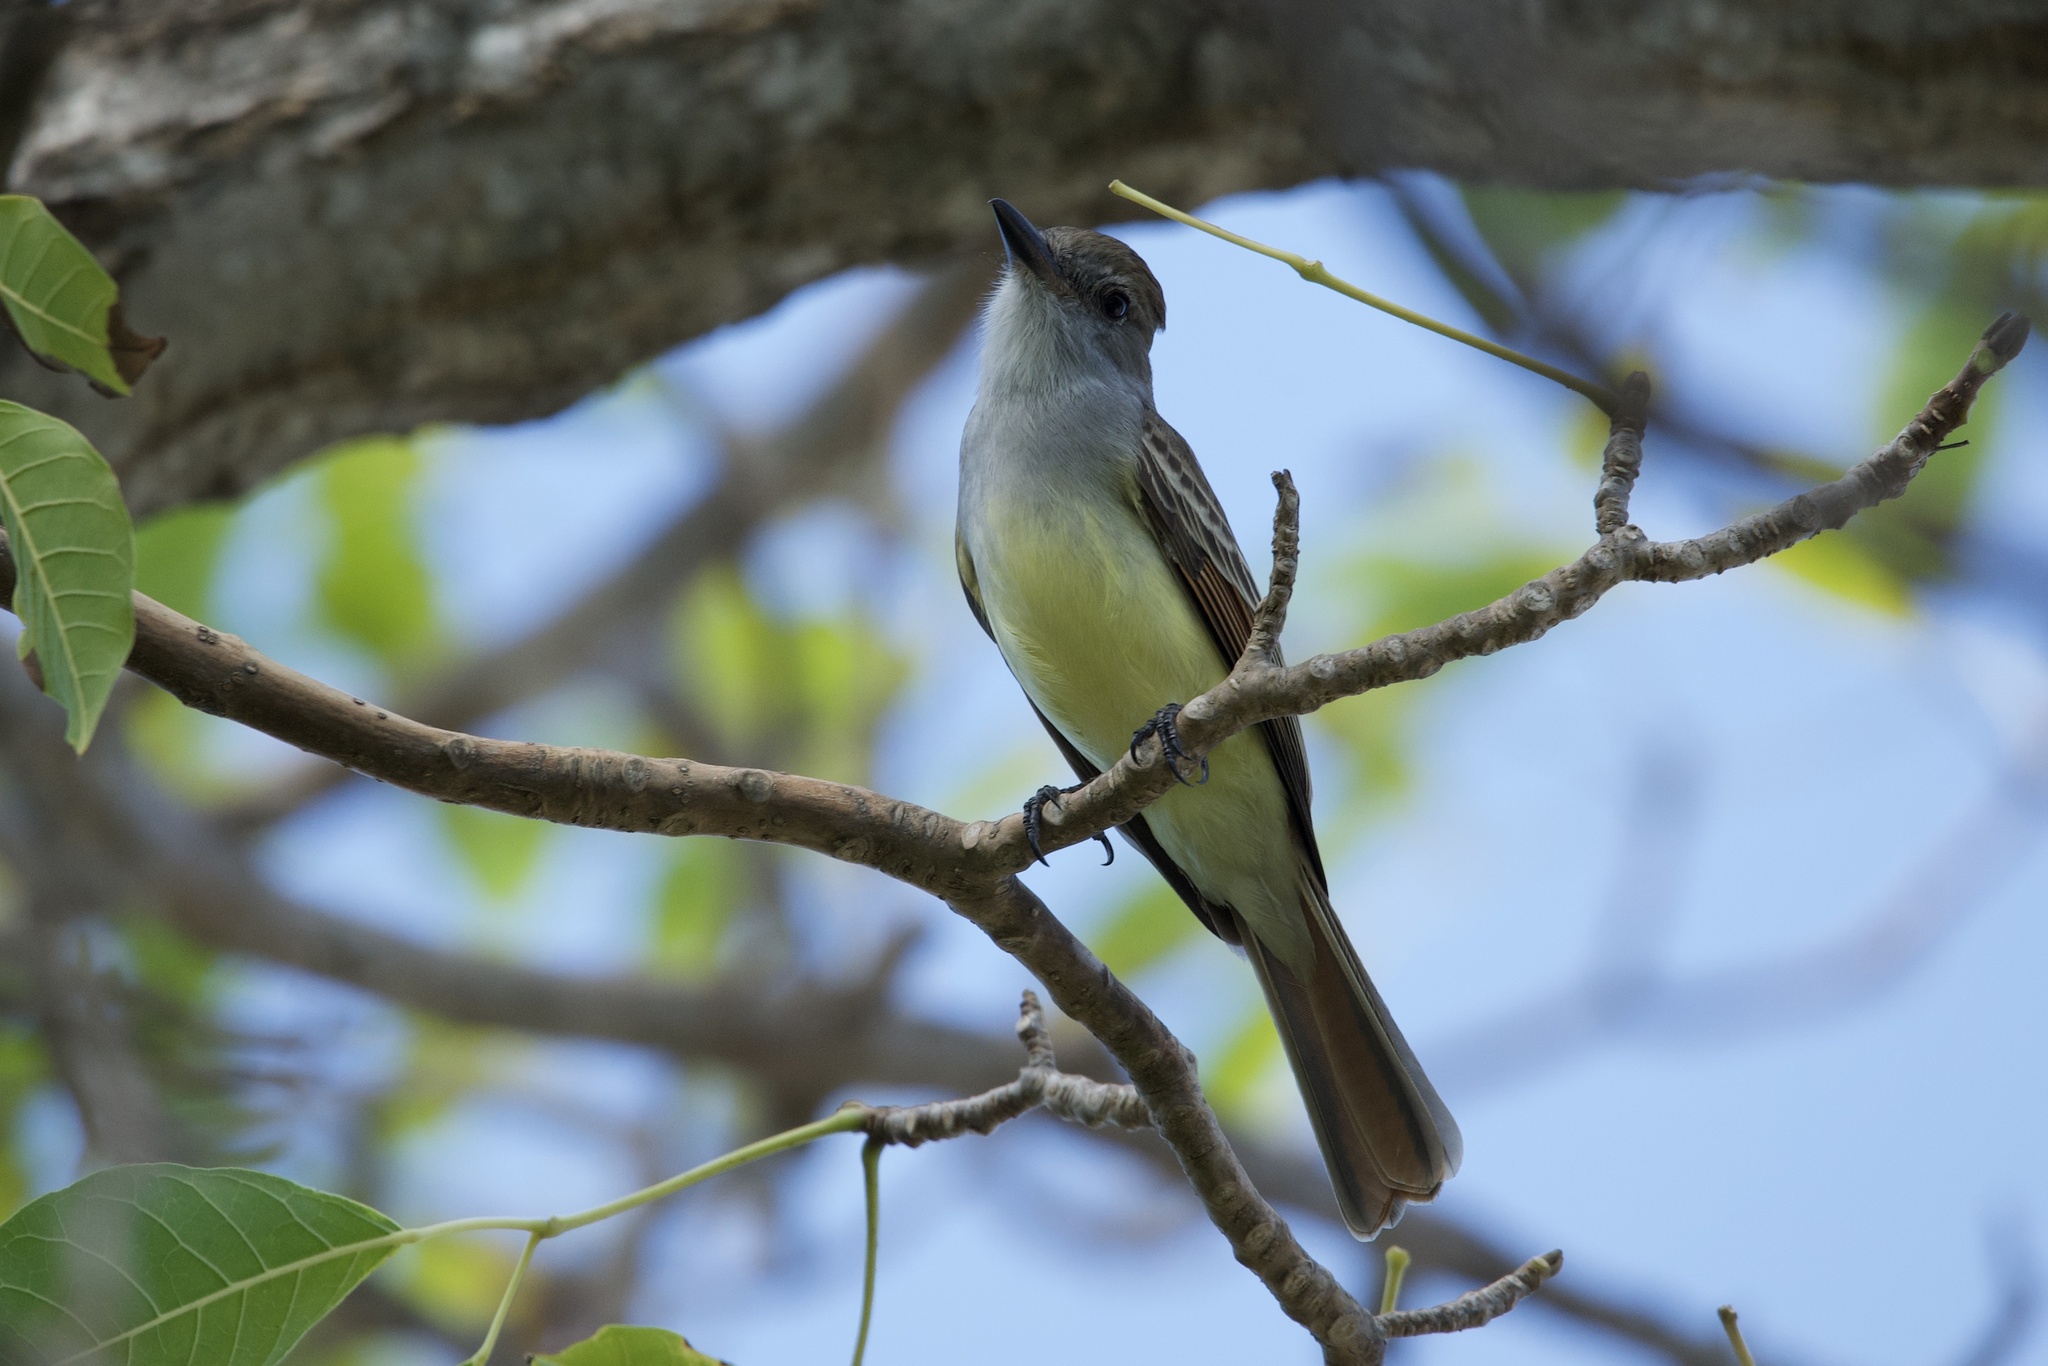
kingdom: Animalia
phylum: Chordata
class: Aves
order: Passeriformes
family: Tyrannidae
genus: Myiarchus
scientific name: Myiarchus tyrannulus
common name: Brown-crested flycatcher
